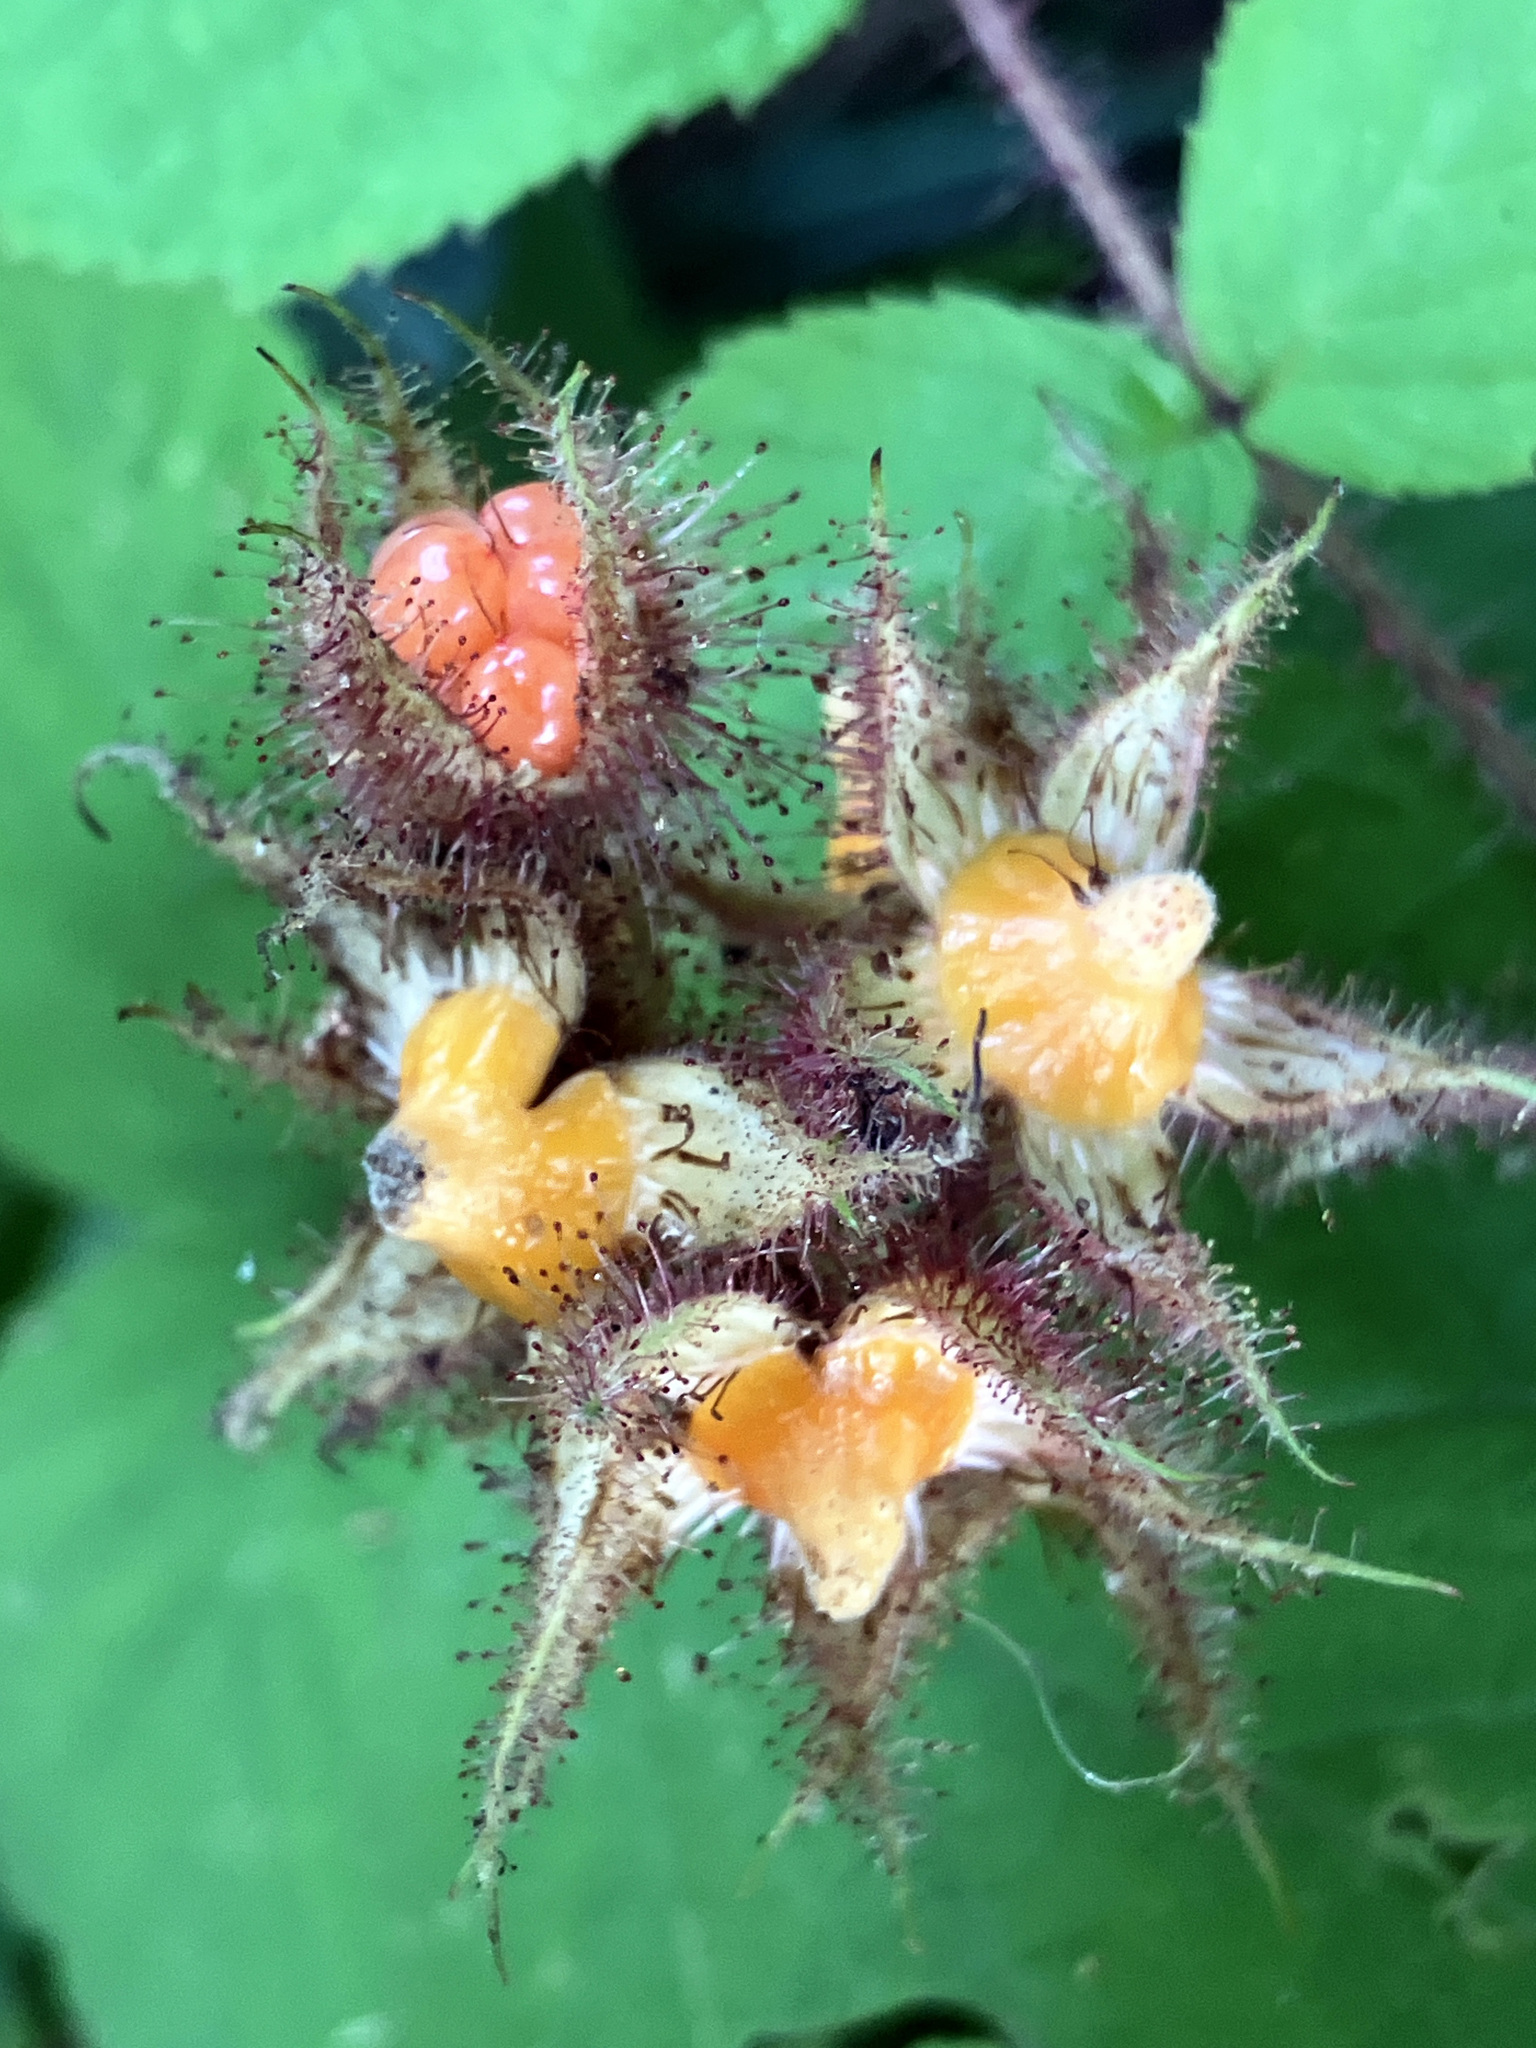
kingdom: Plantae
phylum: Tracheophyta
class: Magnoliopsida
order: Rosales
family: Rosaceae
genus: Rubus
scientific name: Rubus phoenicolasius
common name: Japanese wineberry
